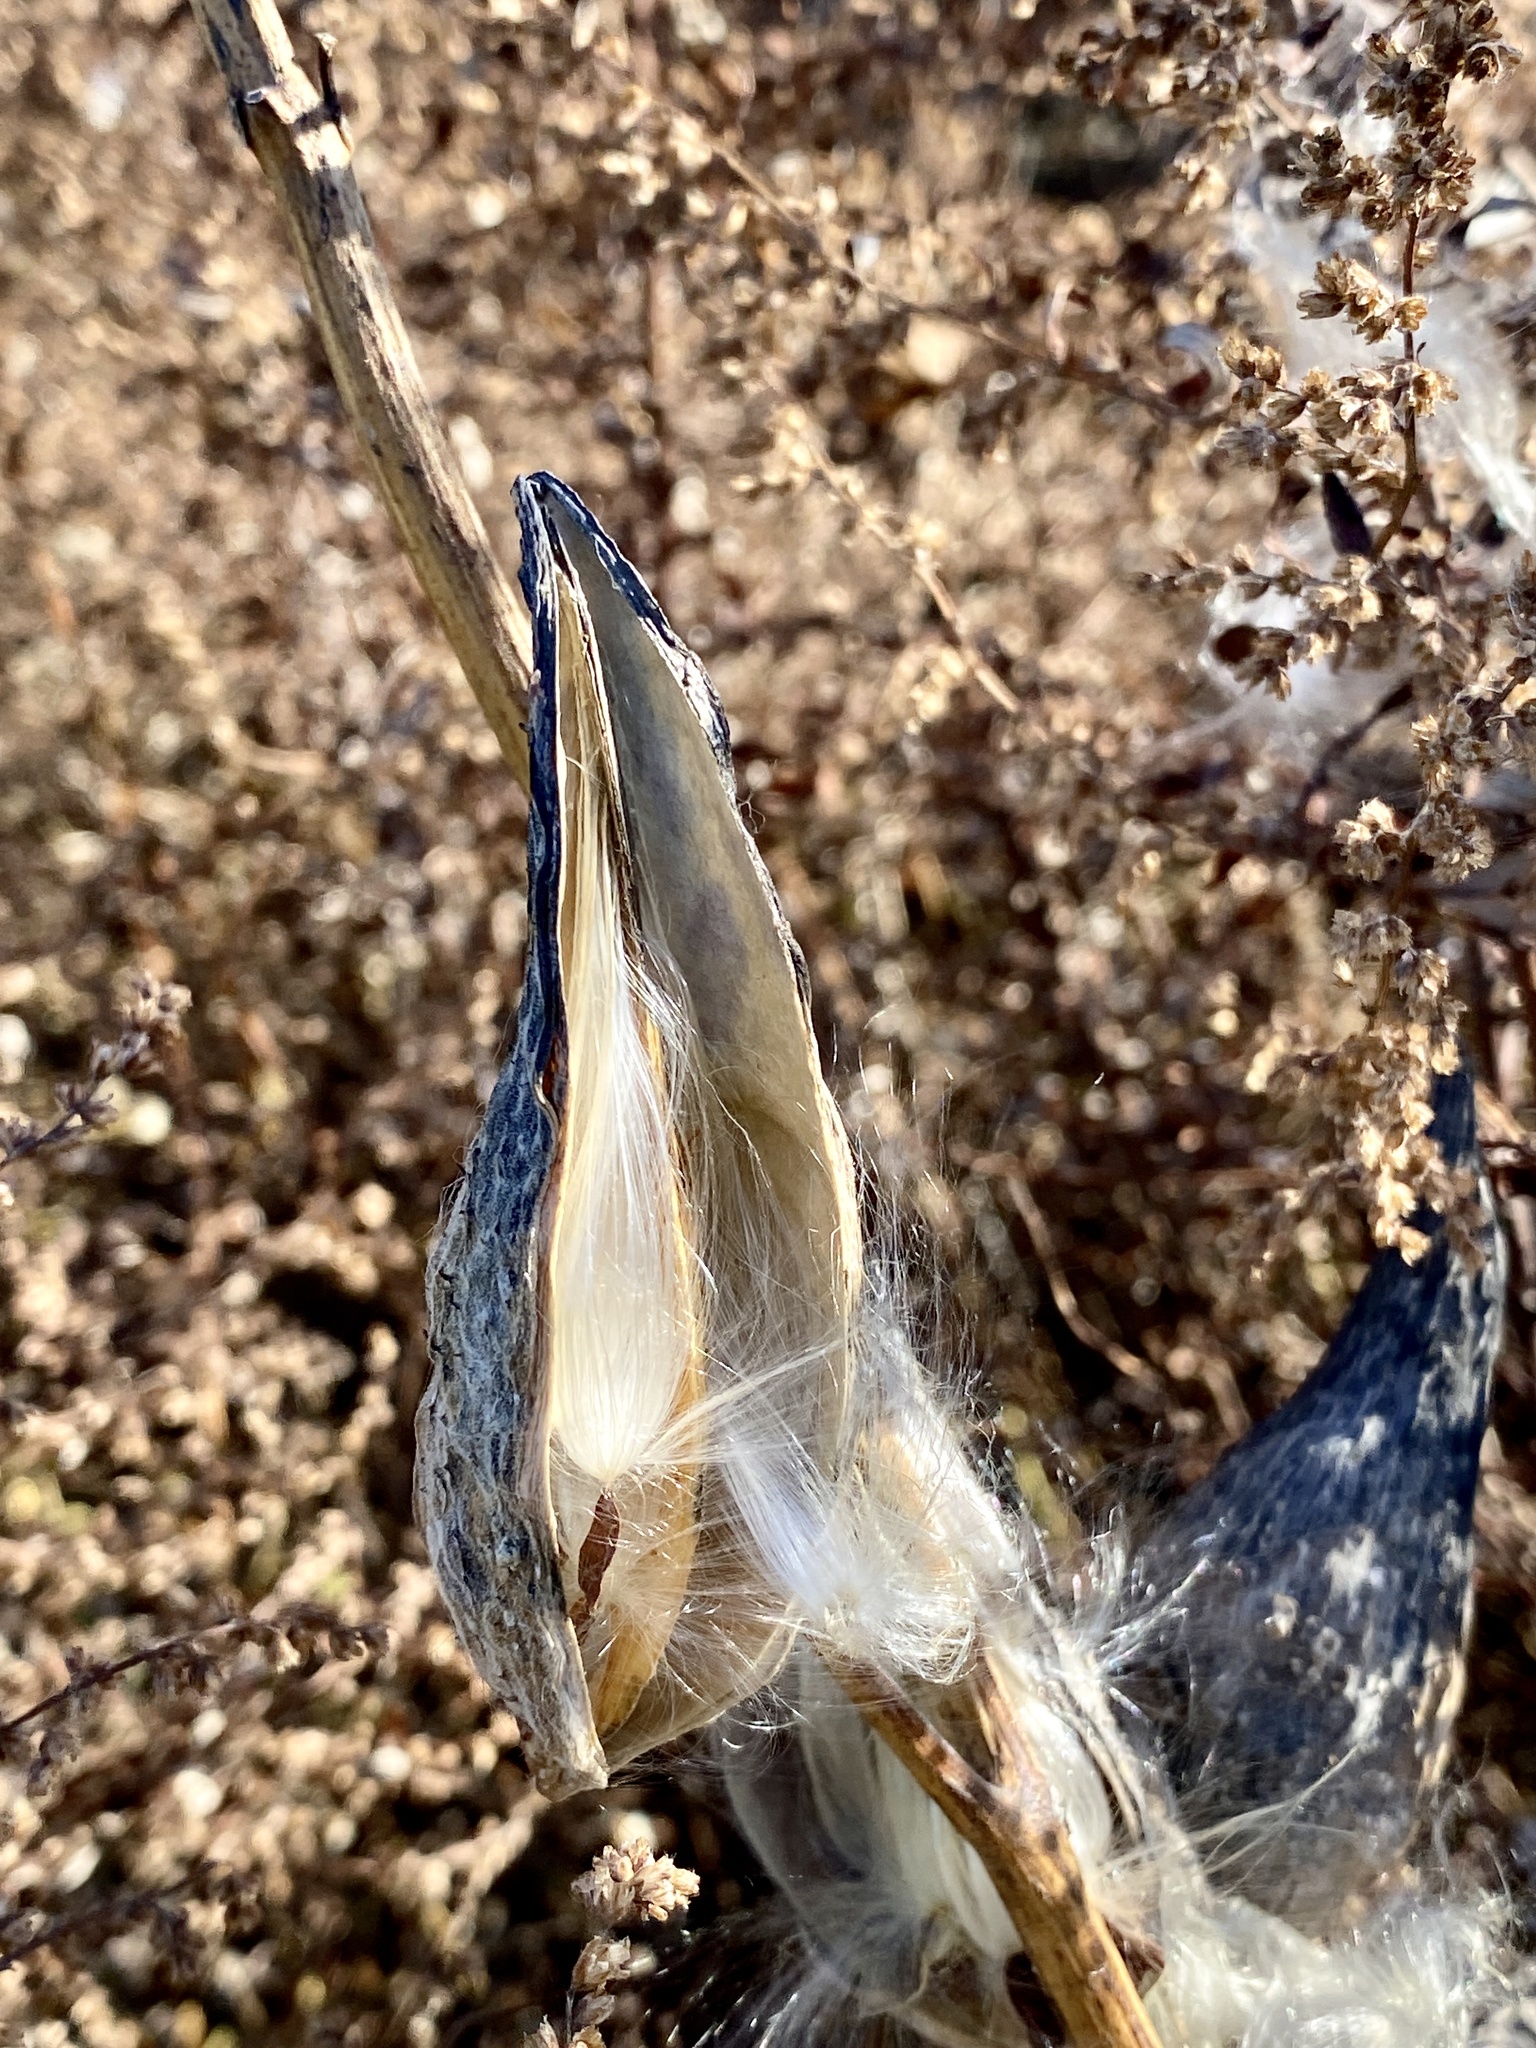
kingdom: Plantae
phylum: Tracheophyta
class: Magnoliopsida
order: Gentianales
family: Apocynaceae
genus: Asclepias
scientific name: Asclepias syriaca
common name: Common milkweed
